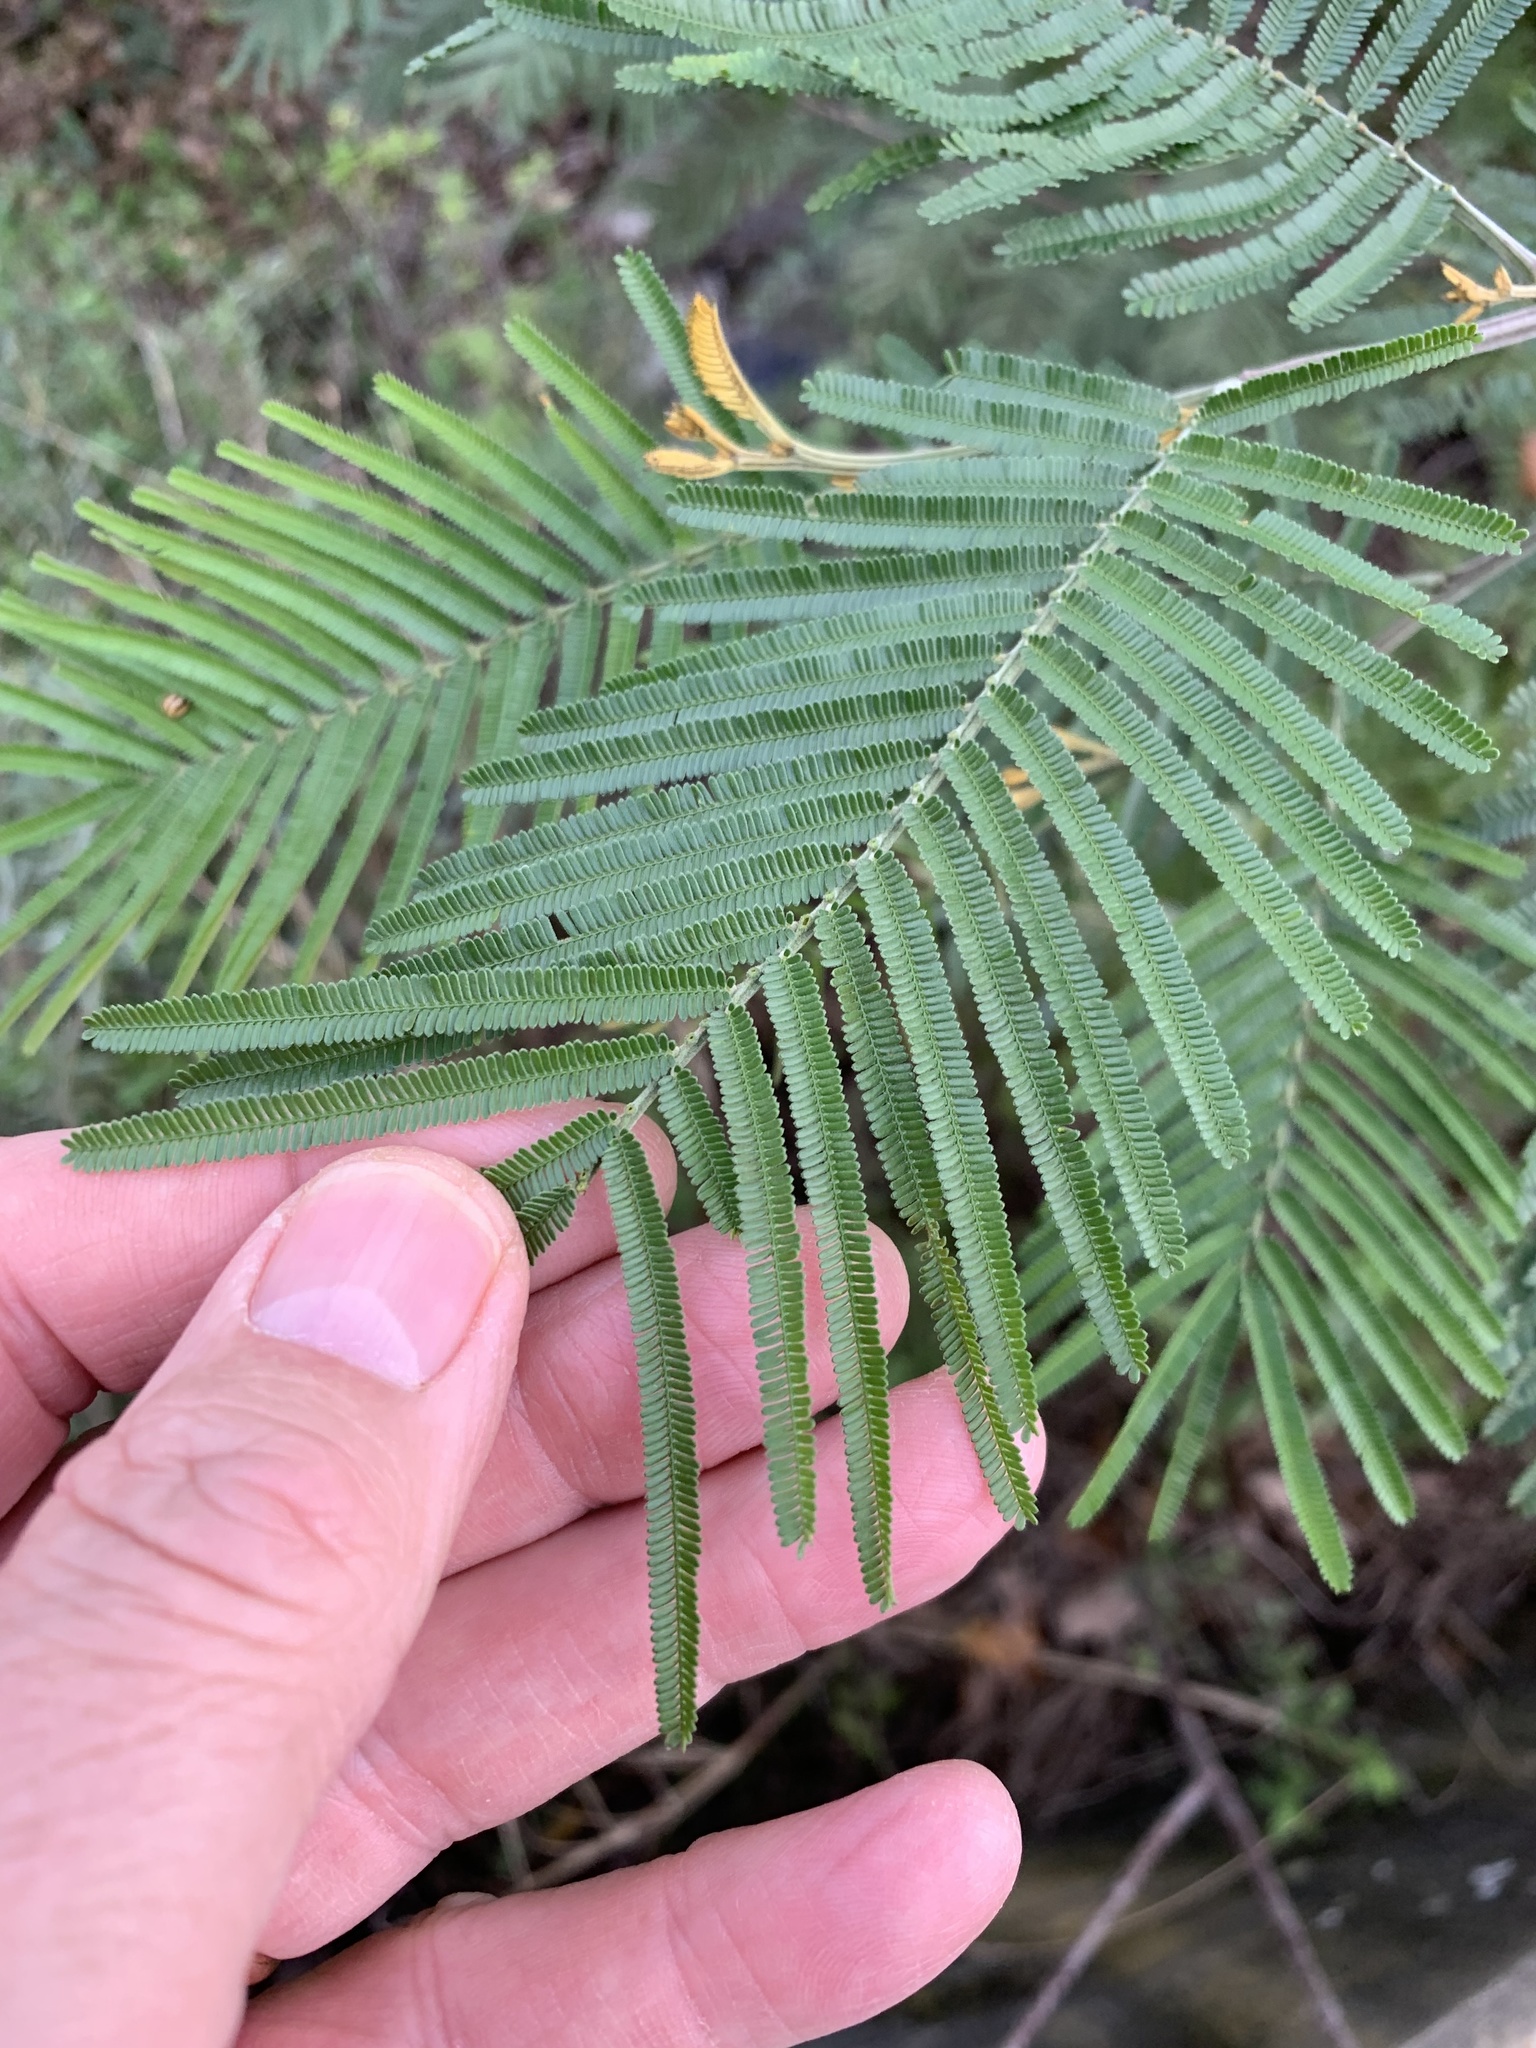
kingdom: Plantae
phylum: Tracheophyta
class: Magnoliopsida
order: Fabales
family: Fabaceae
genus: Acacia
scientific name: Acacia mearnsii
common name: Black wattle
